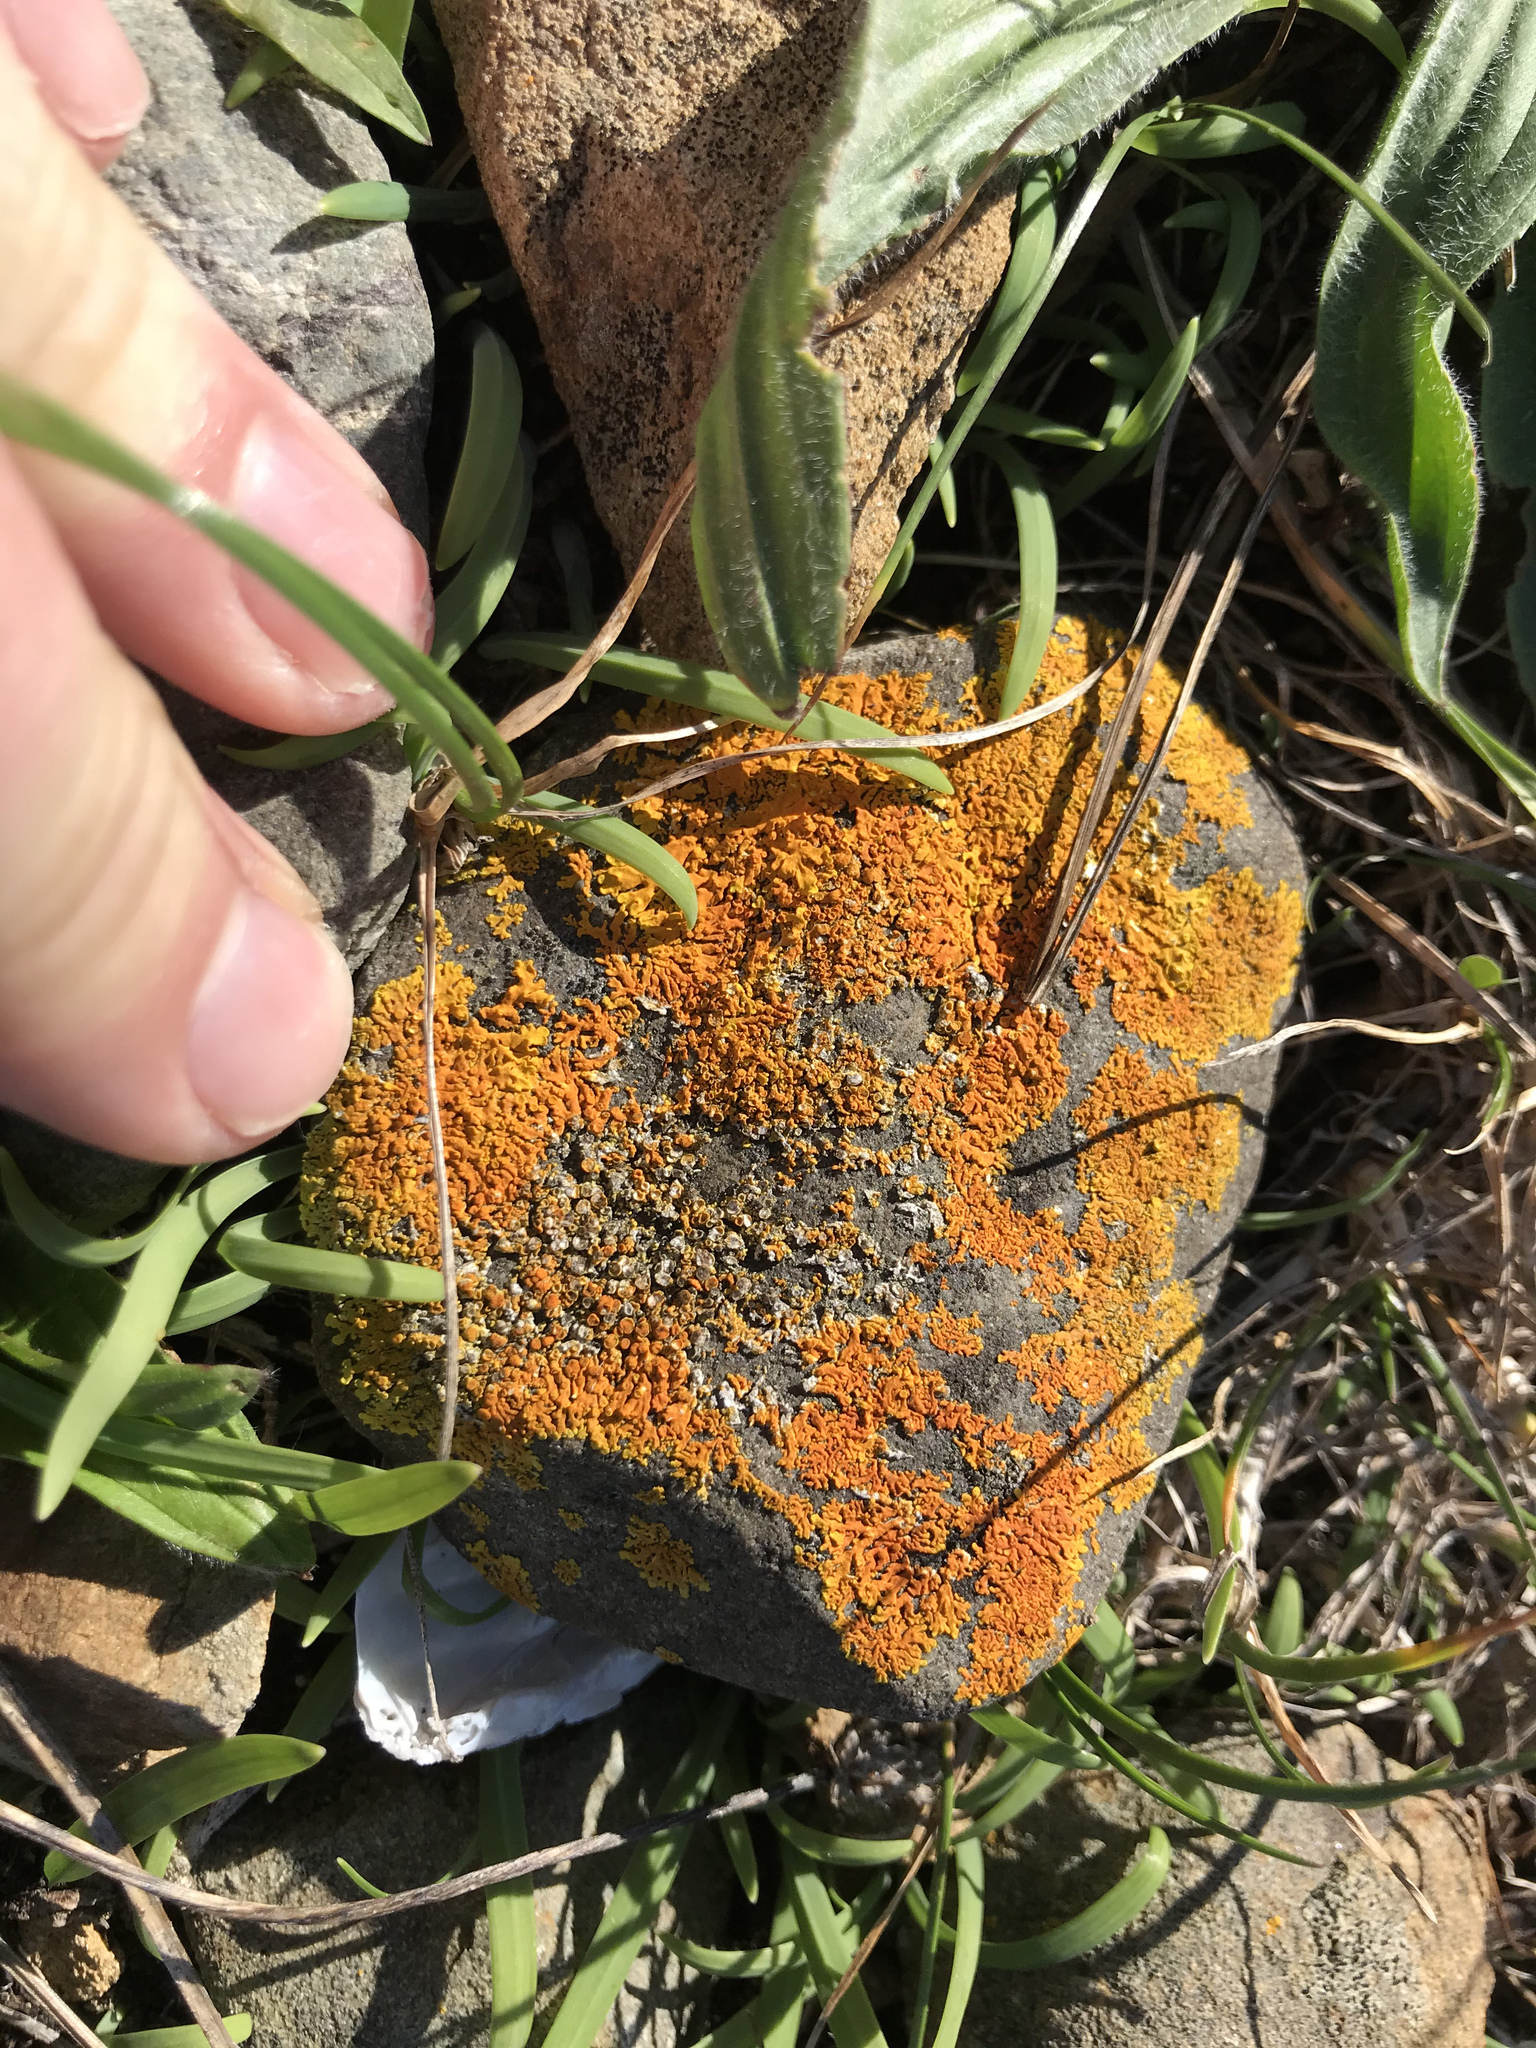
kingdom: Fungi
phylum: Ascomycota
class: Lecanoromycetes
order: Teloschistales
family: Teloschistaceae
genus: Dufourea
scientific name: Dufourea ligulata
